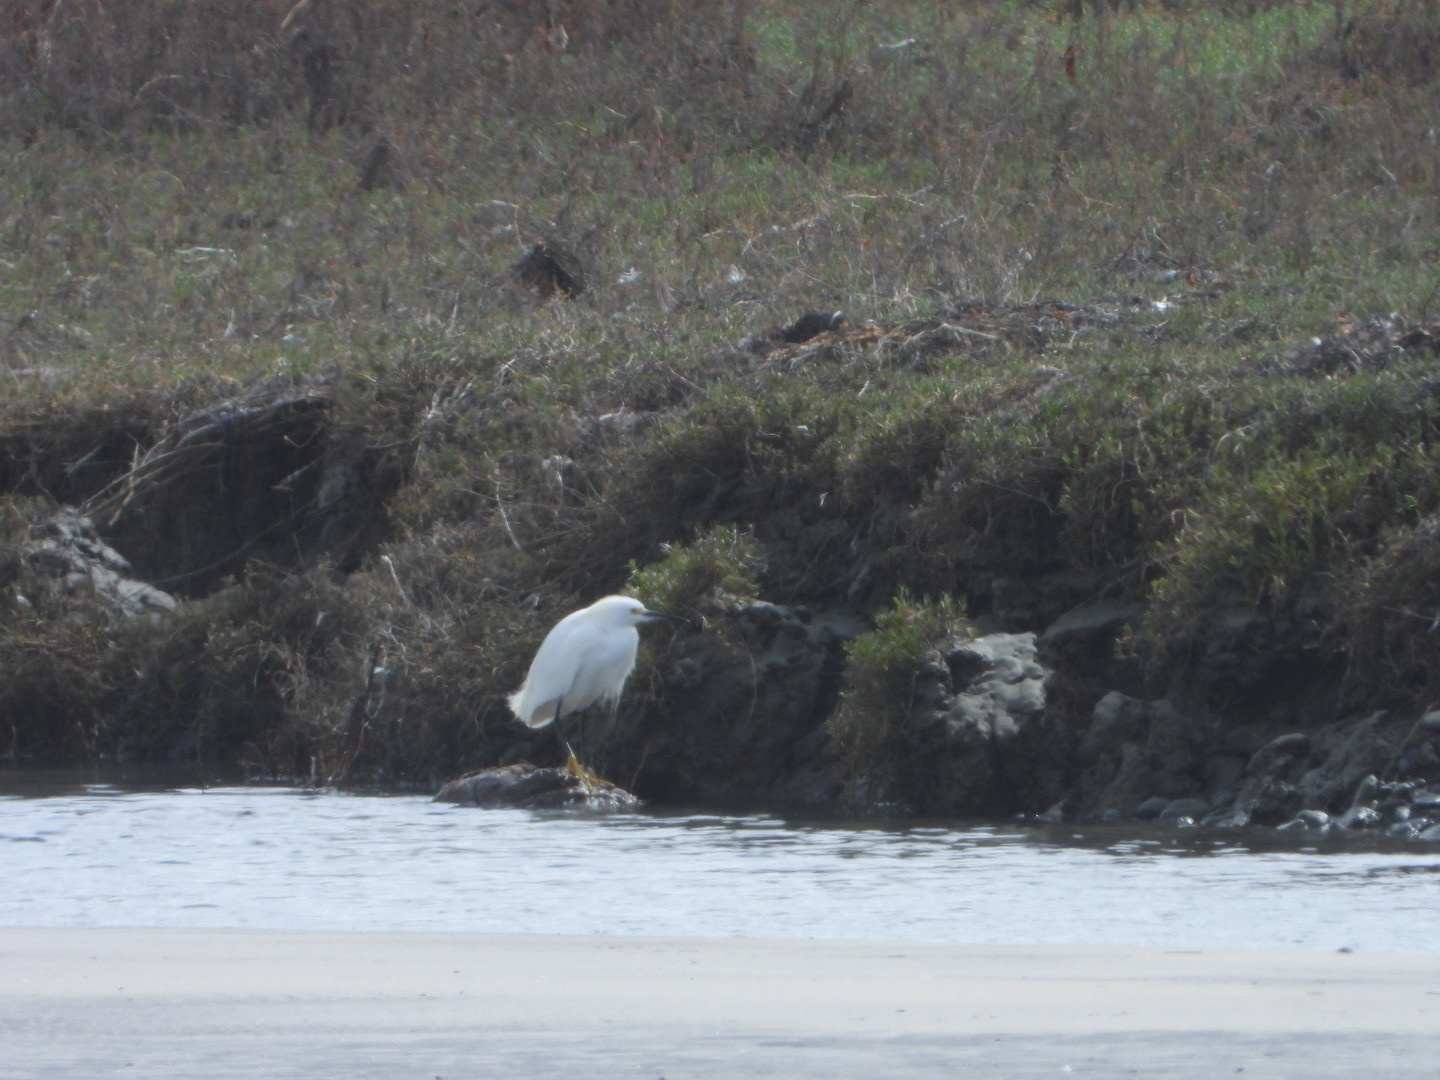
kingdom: Animalia
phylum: Chordata
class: Aves
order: Pelecaniformes
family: Ardeidae
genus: Egretta
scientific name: Egretta thula
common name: Snowy egret
